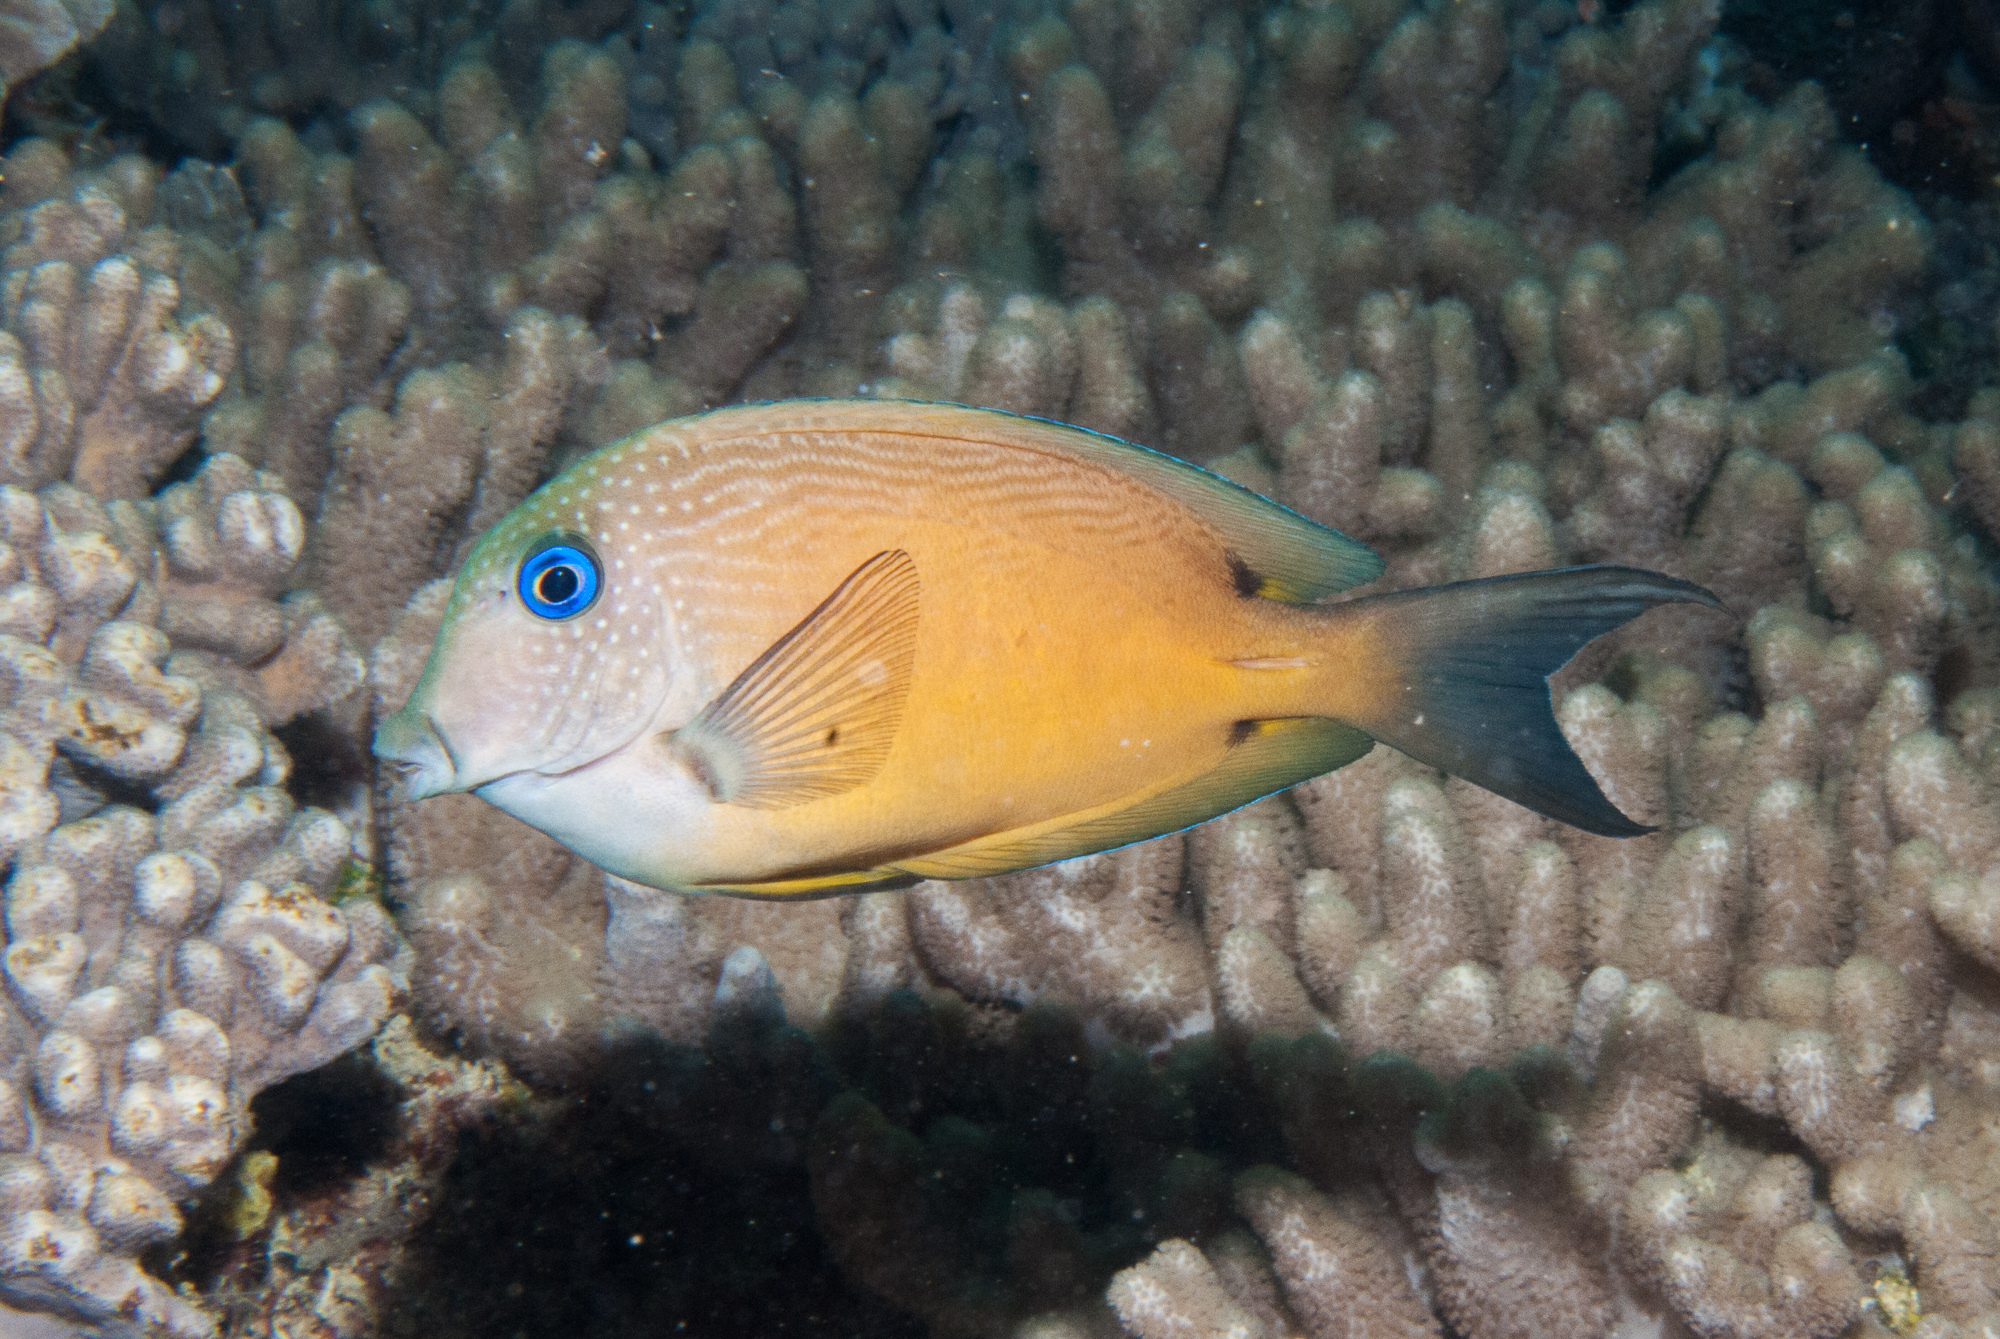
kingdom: Animalia
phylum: Chordata
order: Perciformes
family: Acanthuridae
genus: Ctenochaetus
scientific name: Ctenochaetus binotatus
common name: Two-spot bristletooth
